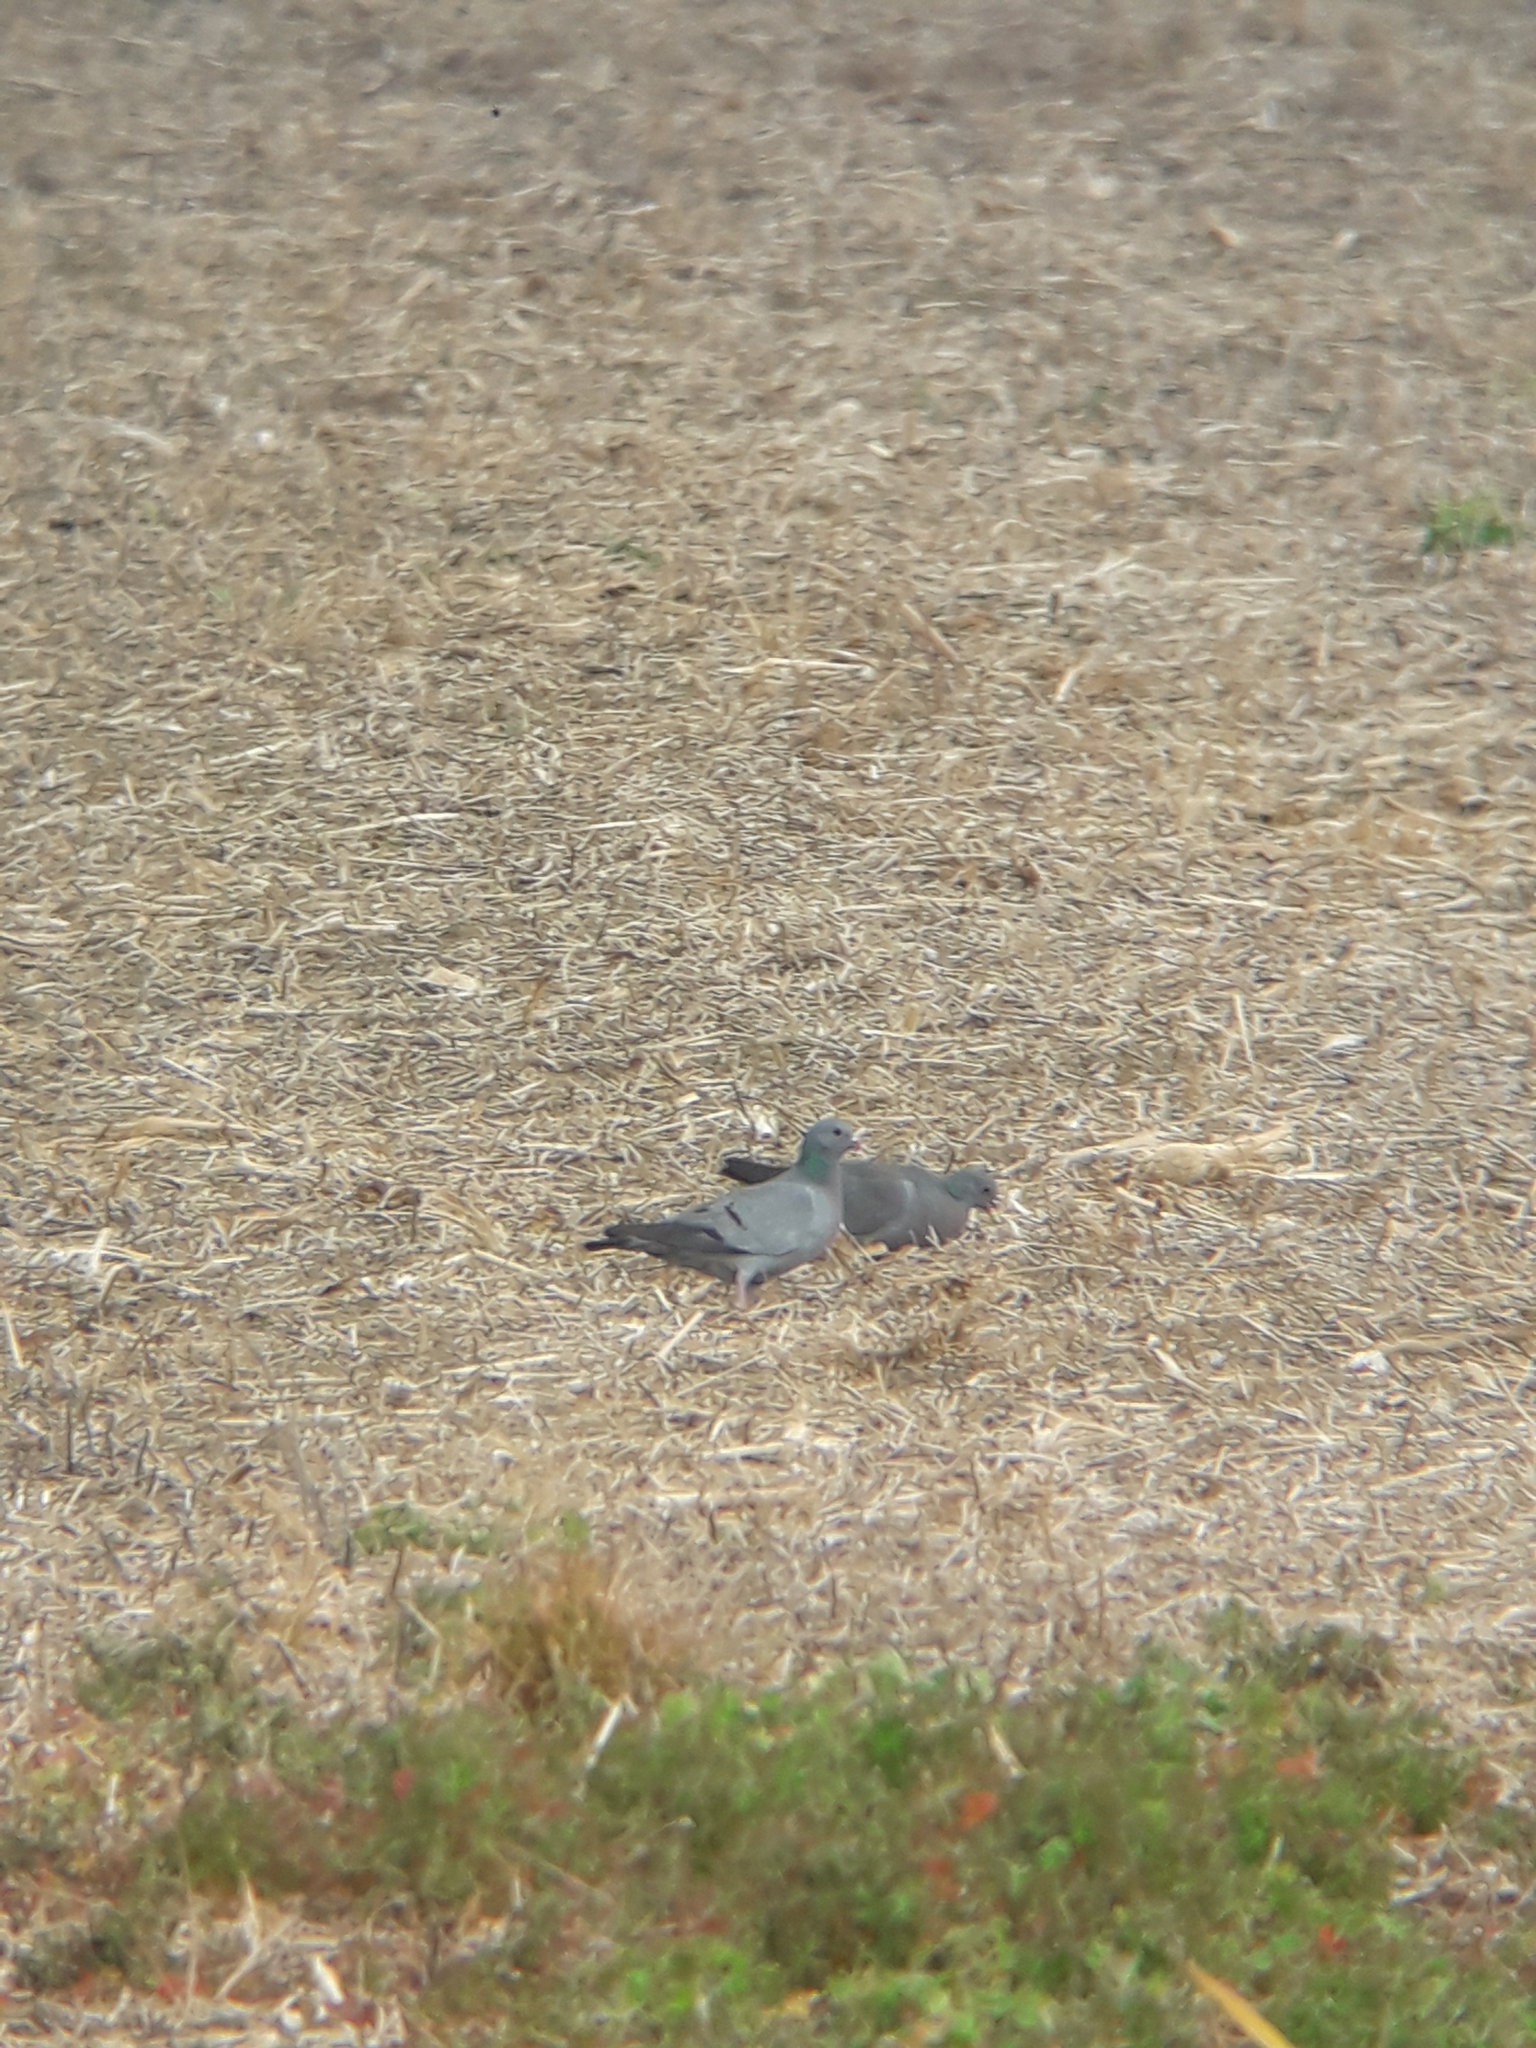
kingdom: Animalia
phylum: Chordata
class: Aves
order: Columbiformes
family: Columbidae
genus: Columba
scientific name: Columba oenas
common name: Stock dove
